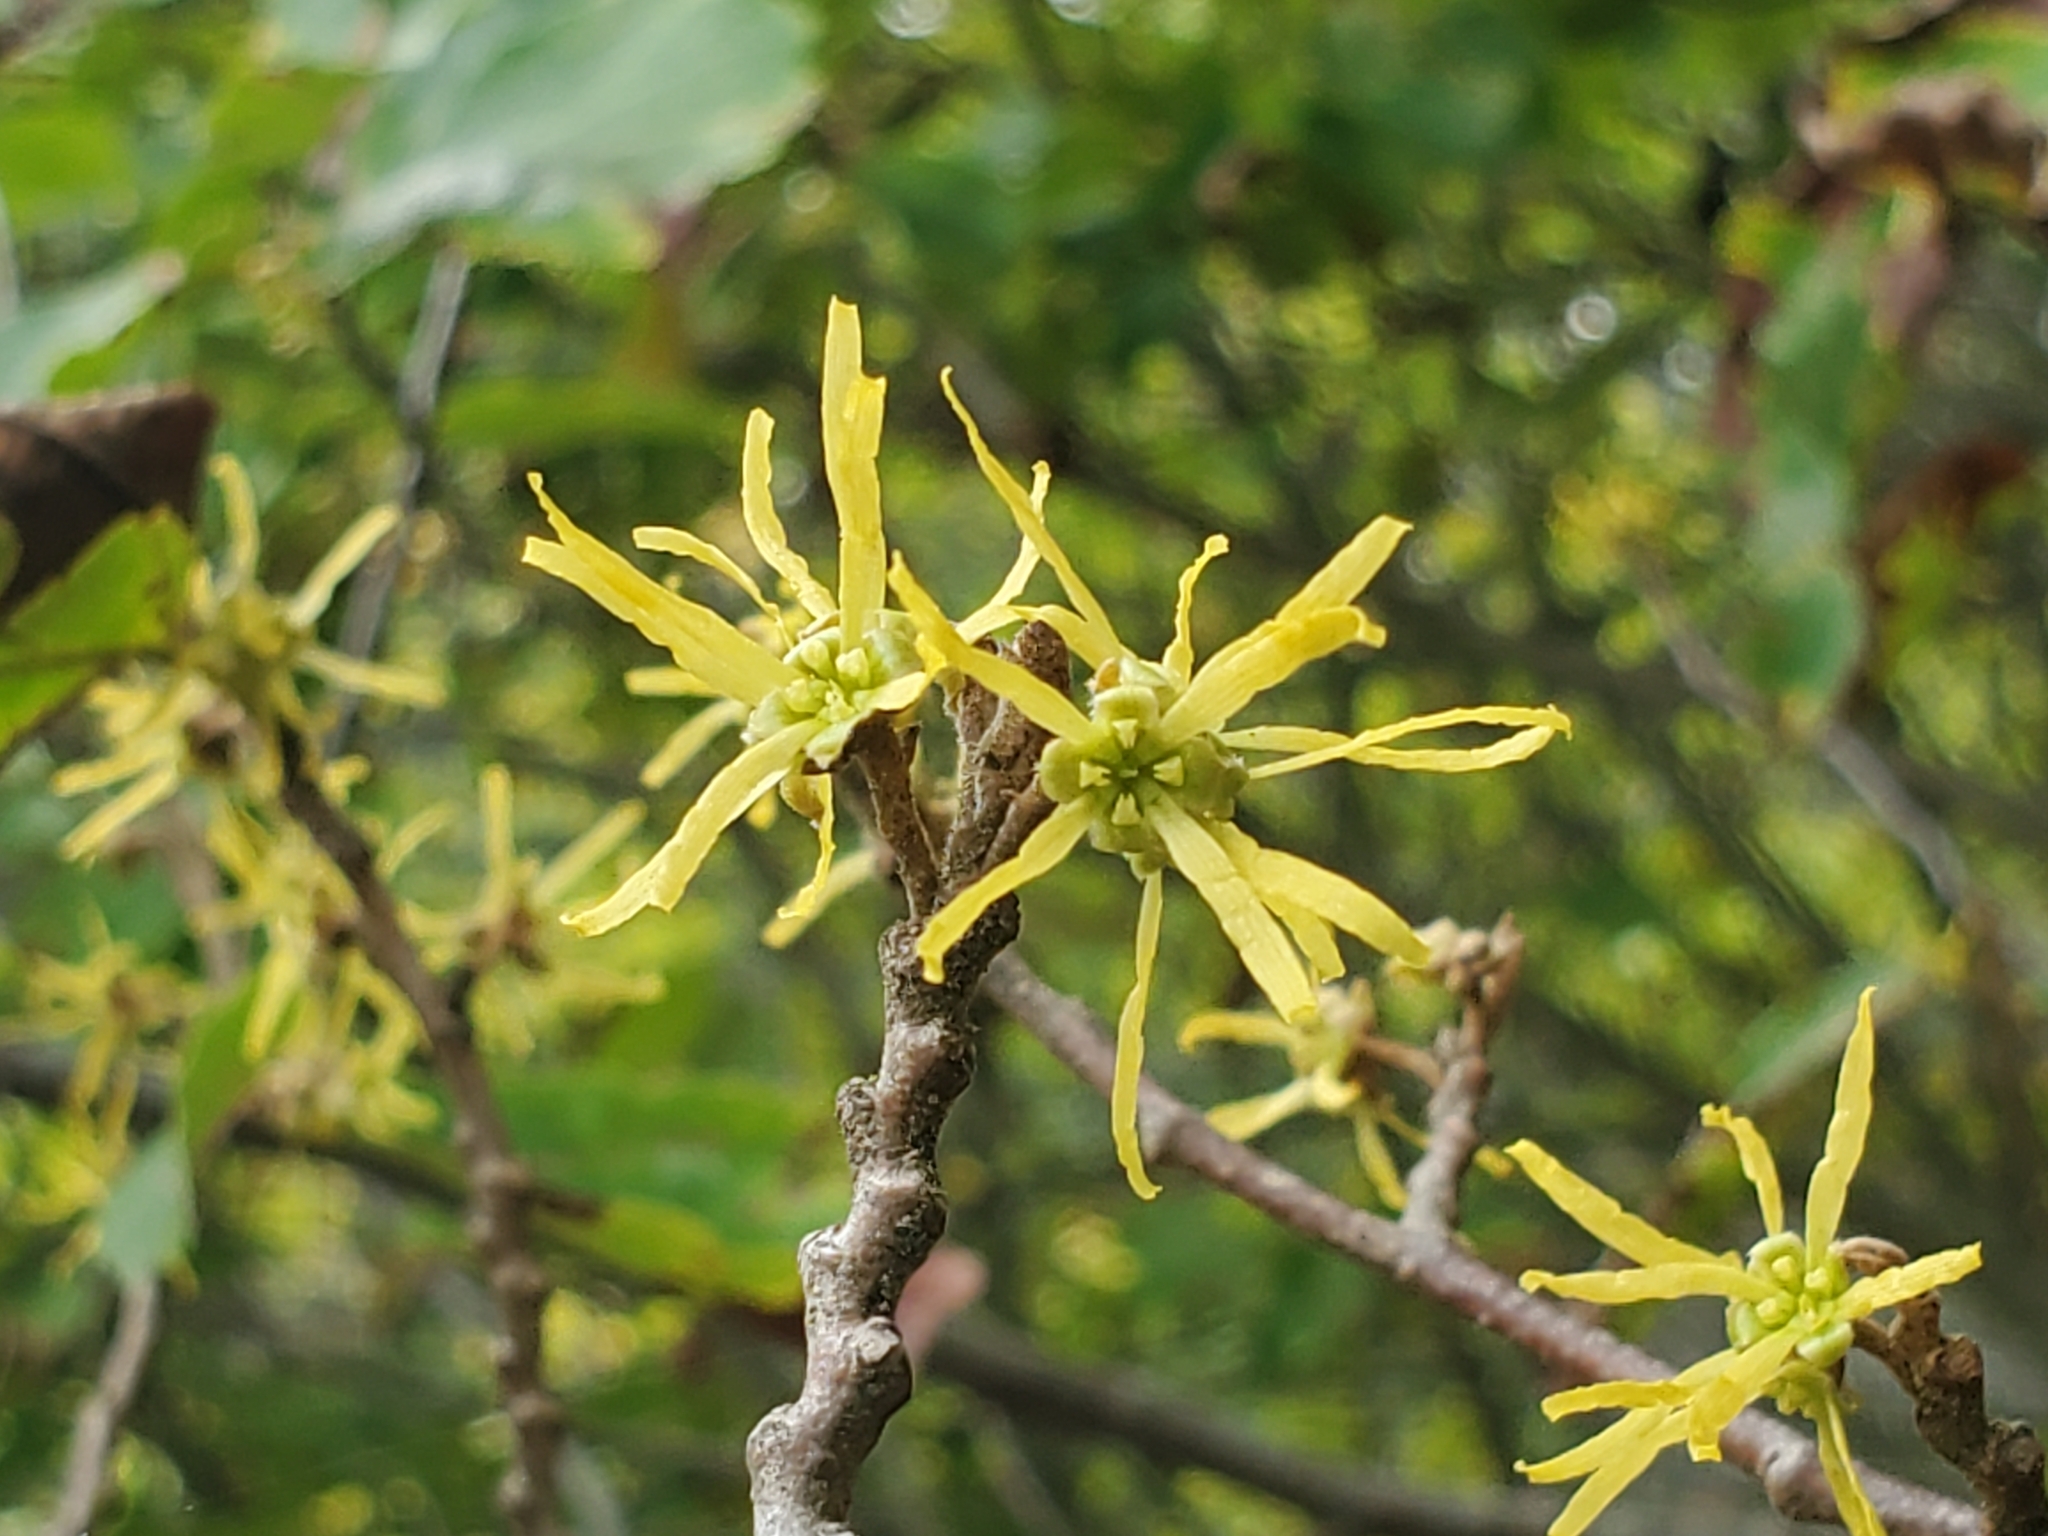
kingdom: Plantae
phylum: Tracheophyta
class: Magnoliopsida
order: Saxifragales
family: Hamamelidaceae
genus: Hamamelis
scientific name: Hamamelis virginiana
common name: Witch-hazel
